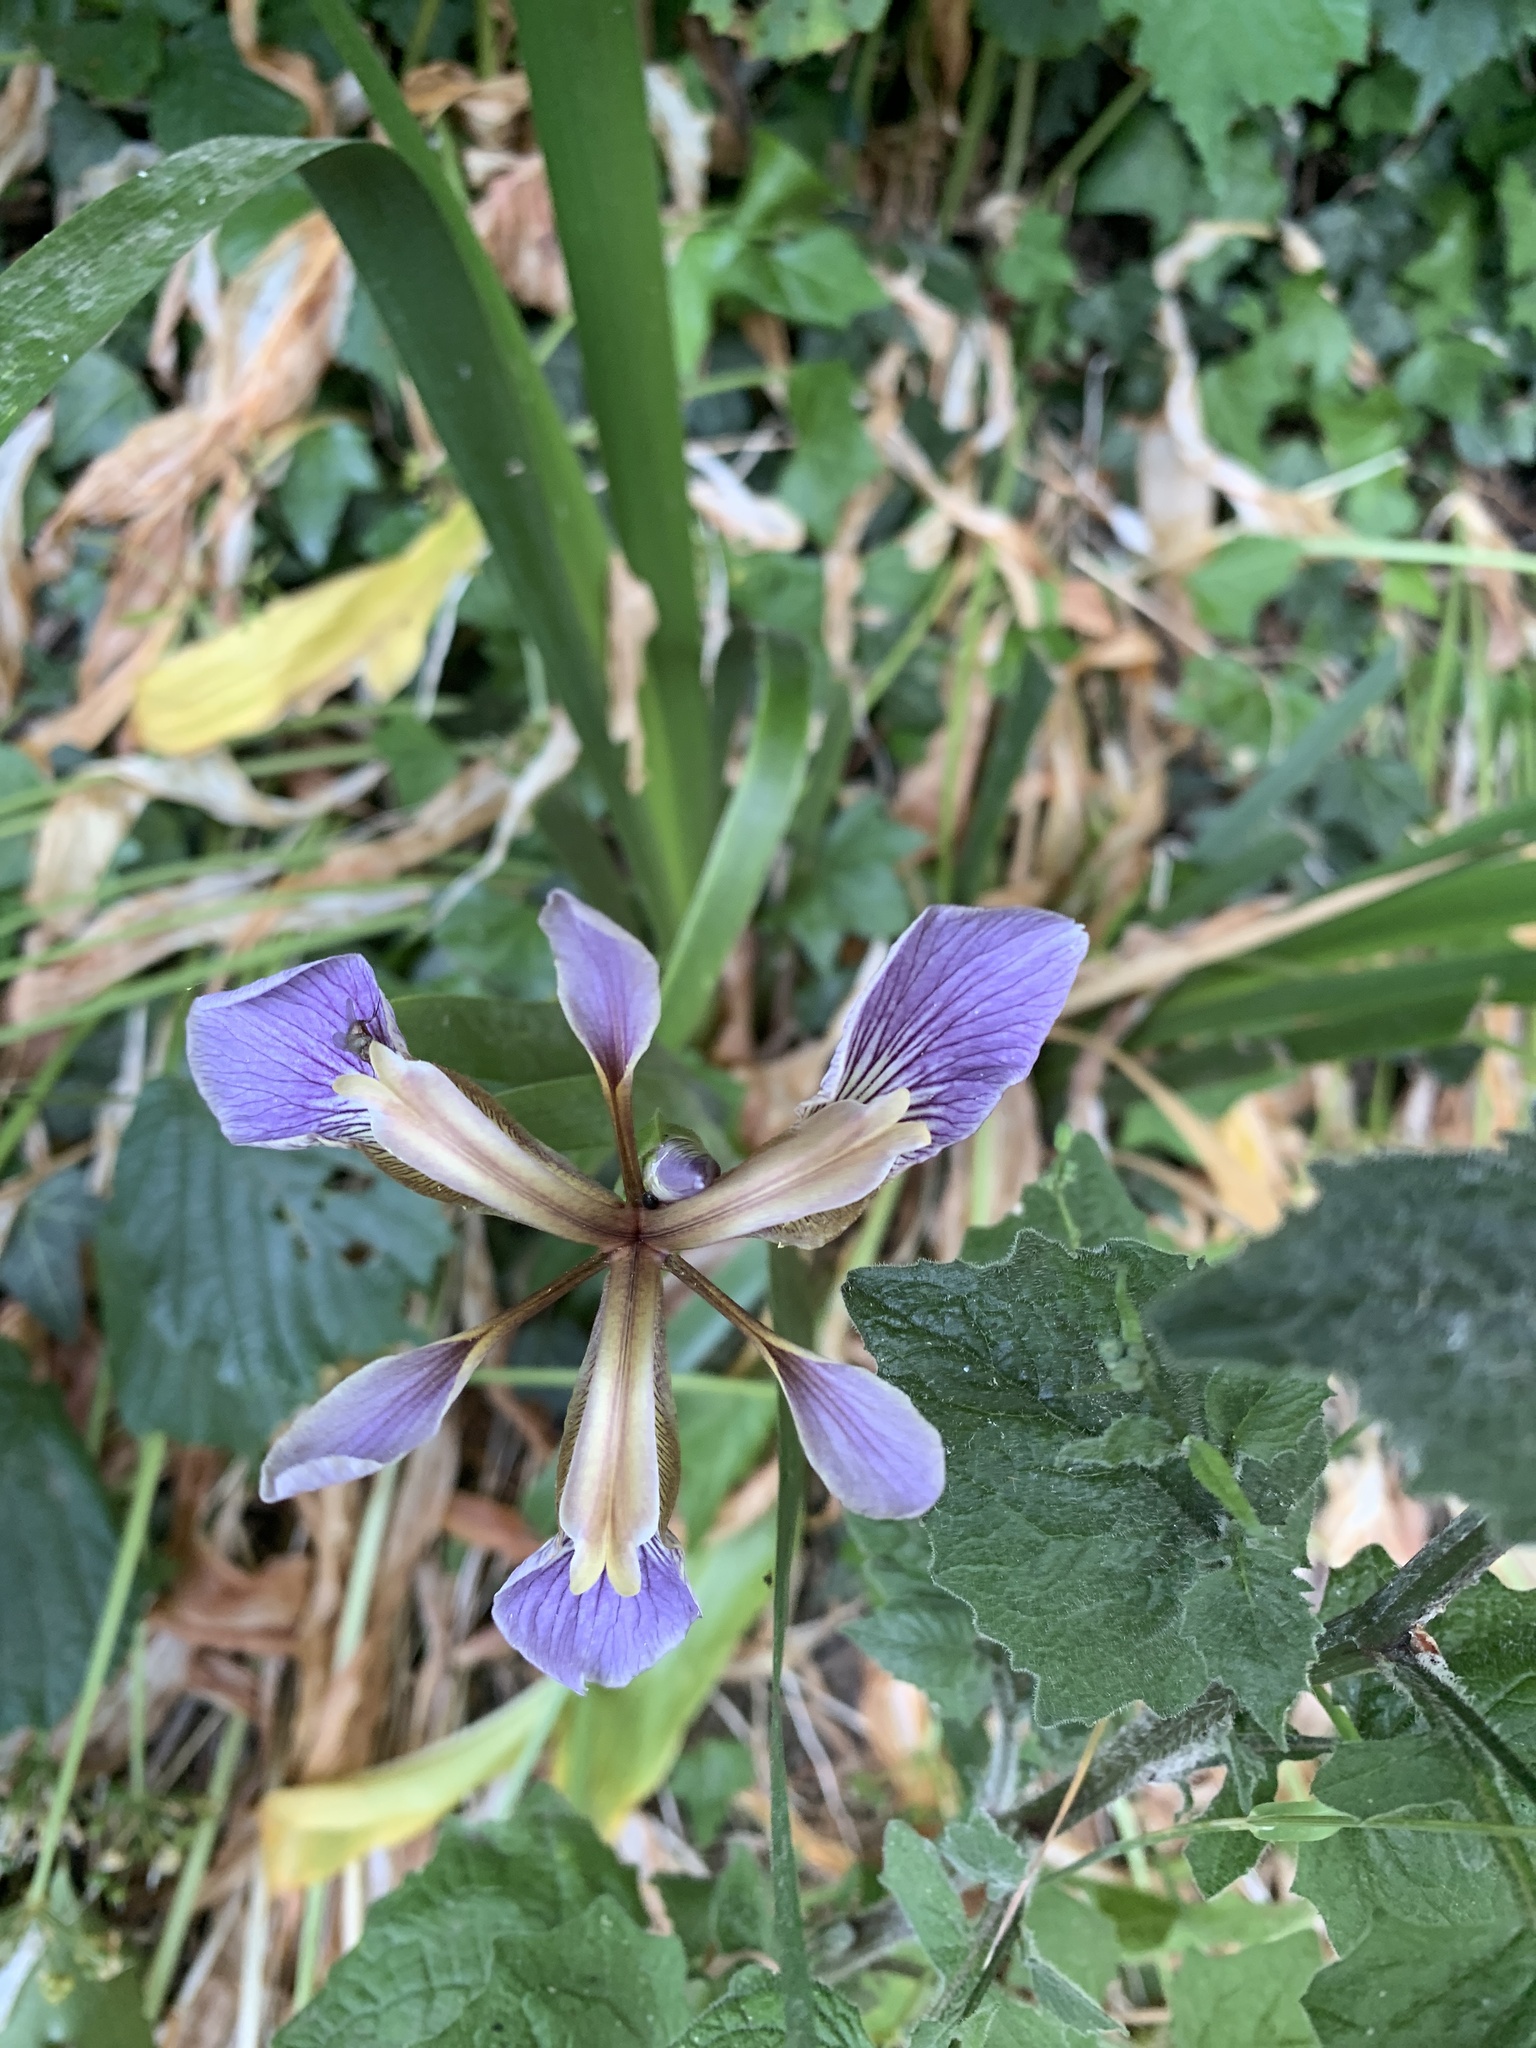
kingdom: Plantae
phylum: Tracheophyta
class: Liliopsida
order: Asparagales
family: Iridaceae
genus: Iris
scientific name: Iris foetidissima
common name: Stinking iris
